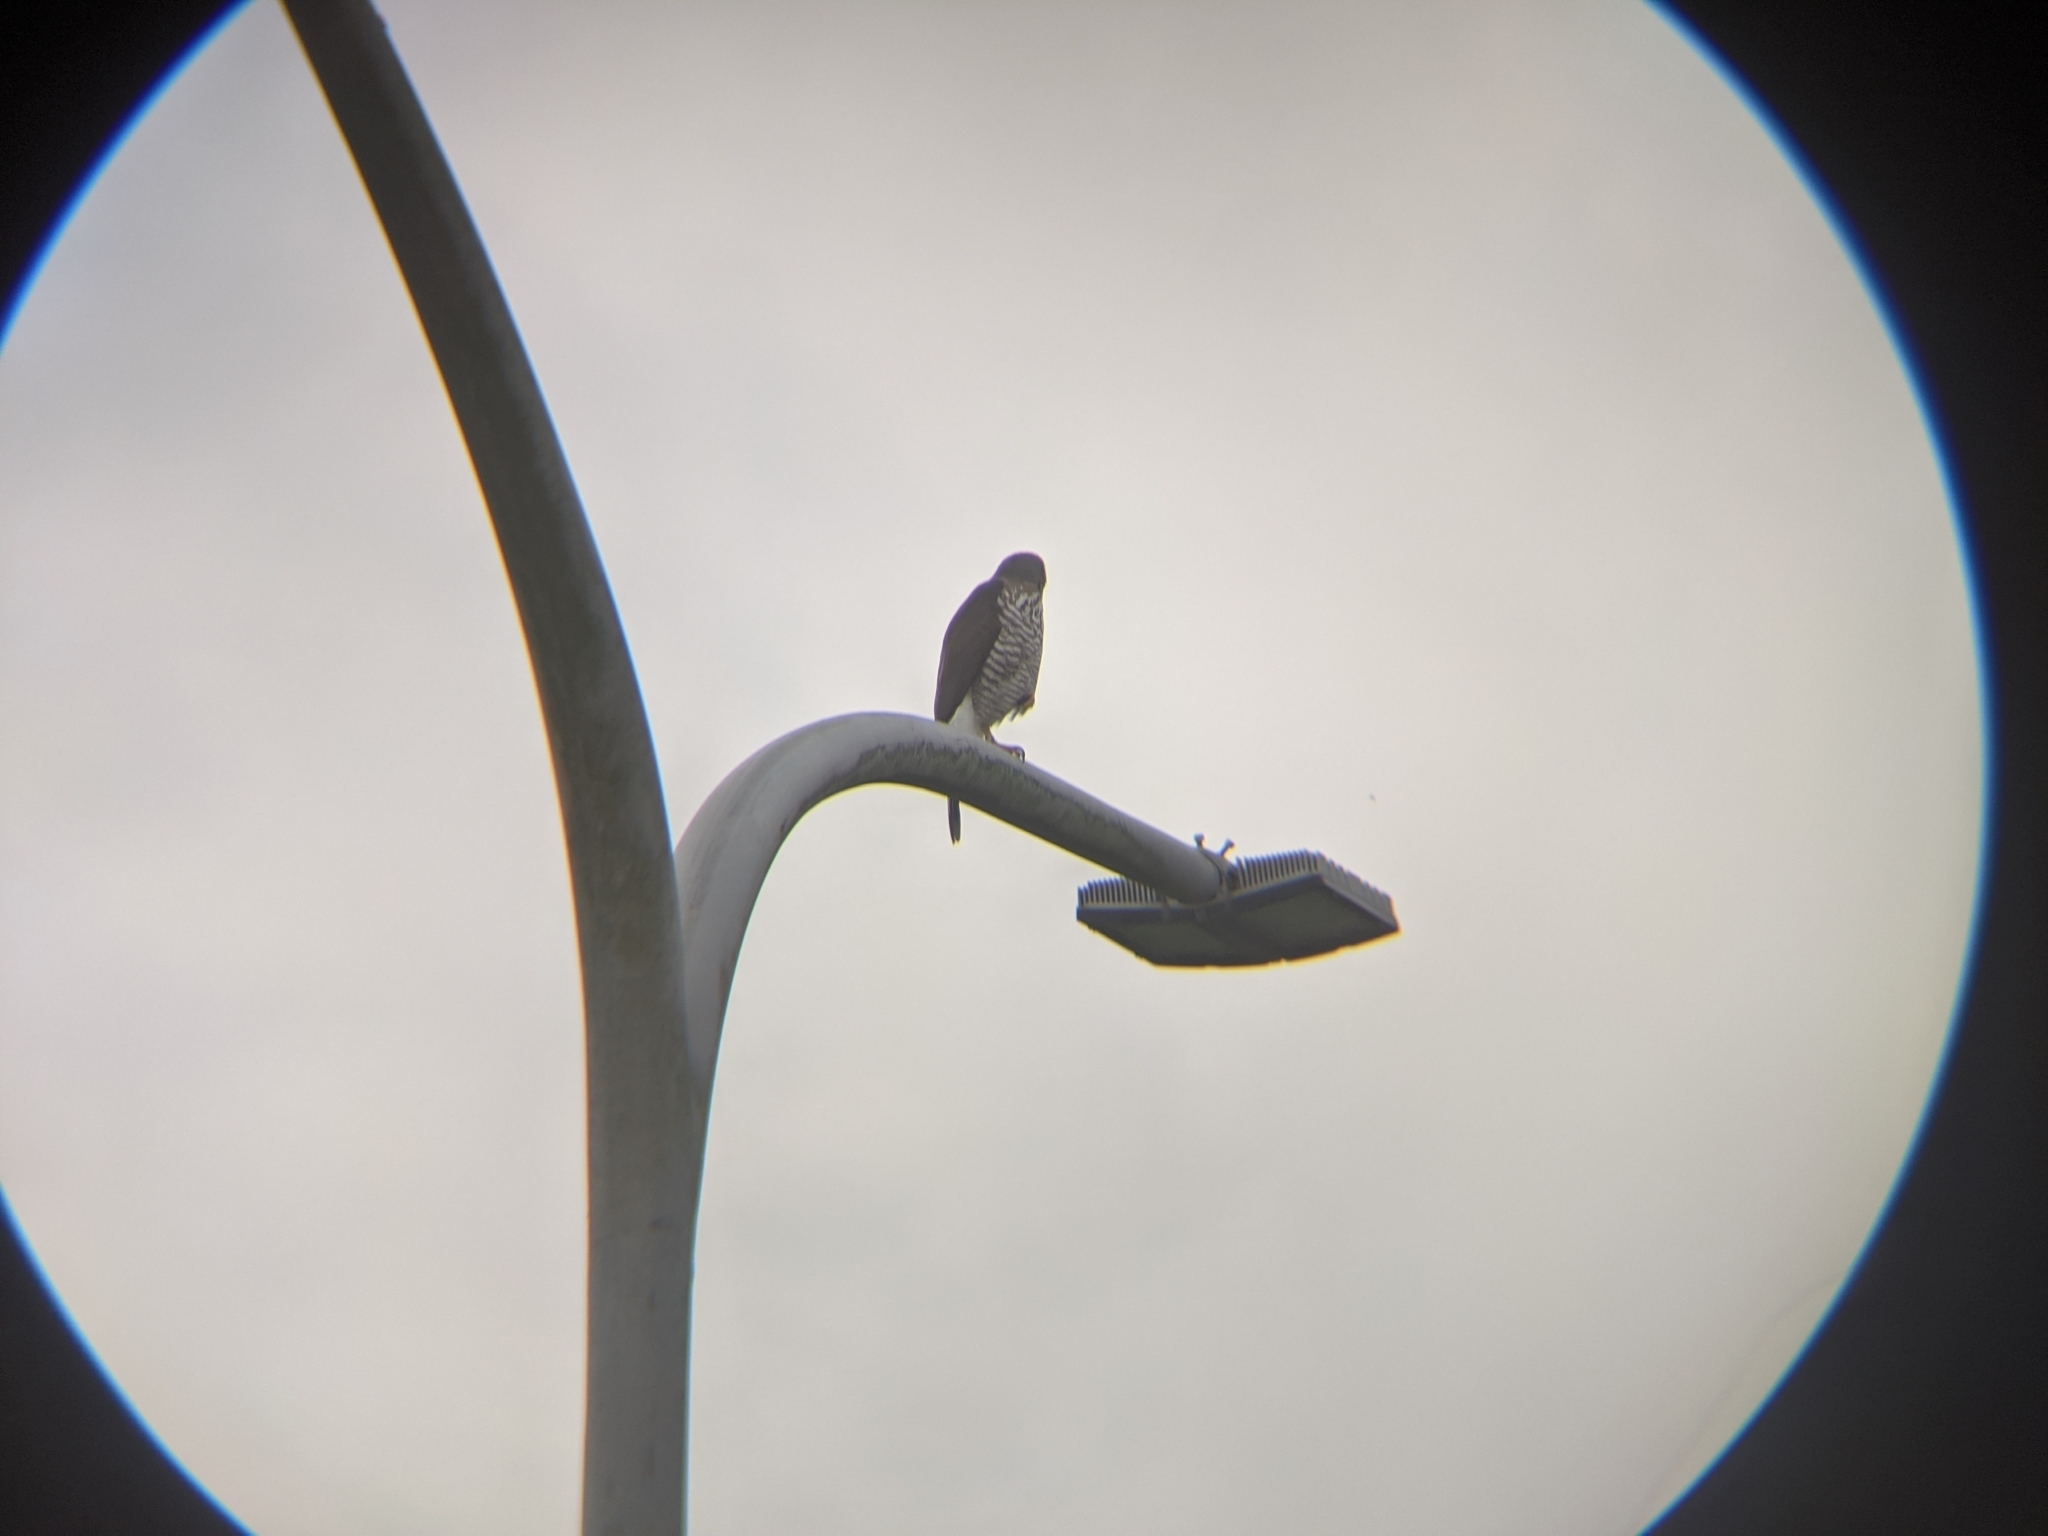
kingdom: Animalia
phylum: Chordata
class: Aves
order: Accipitriformes
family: Accipitridae
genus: Accipiter
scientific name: Accipiter trivirgatus
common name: Crested goshawk
